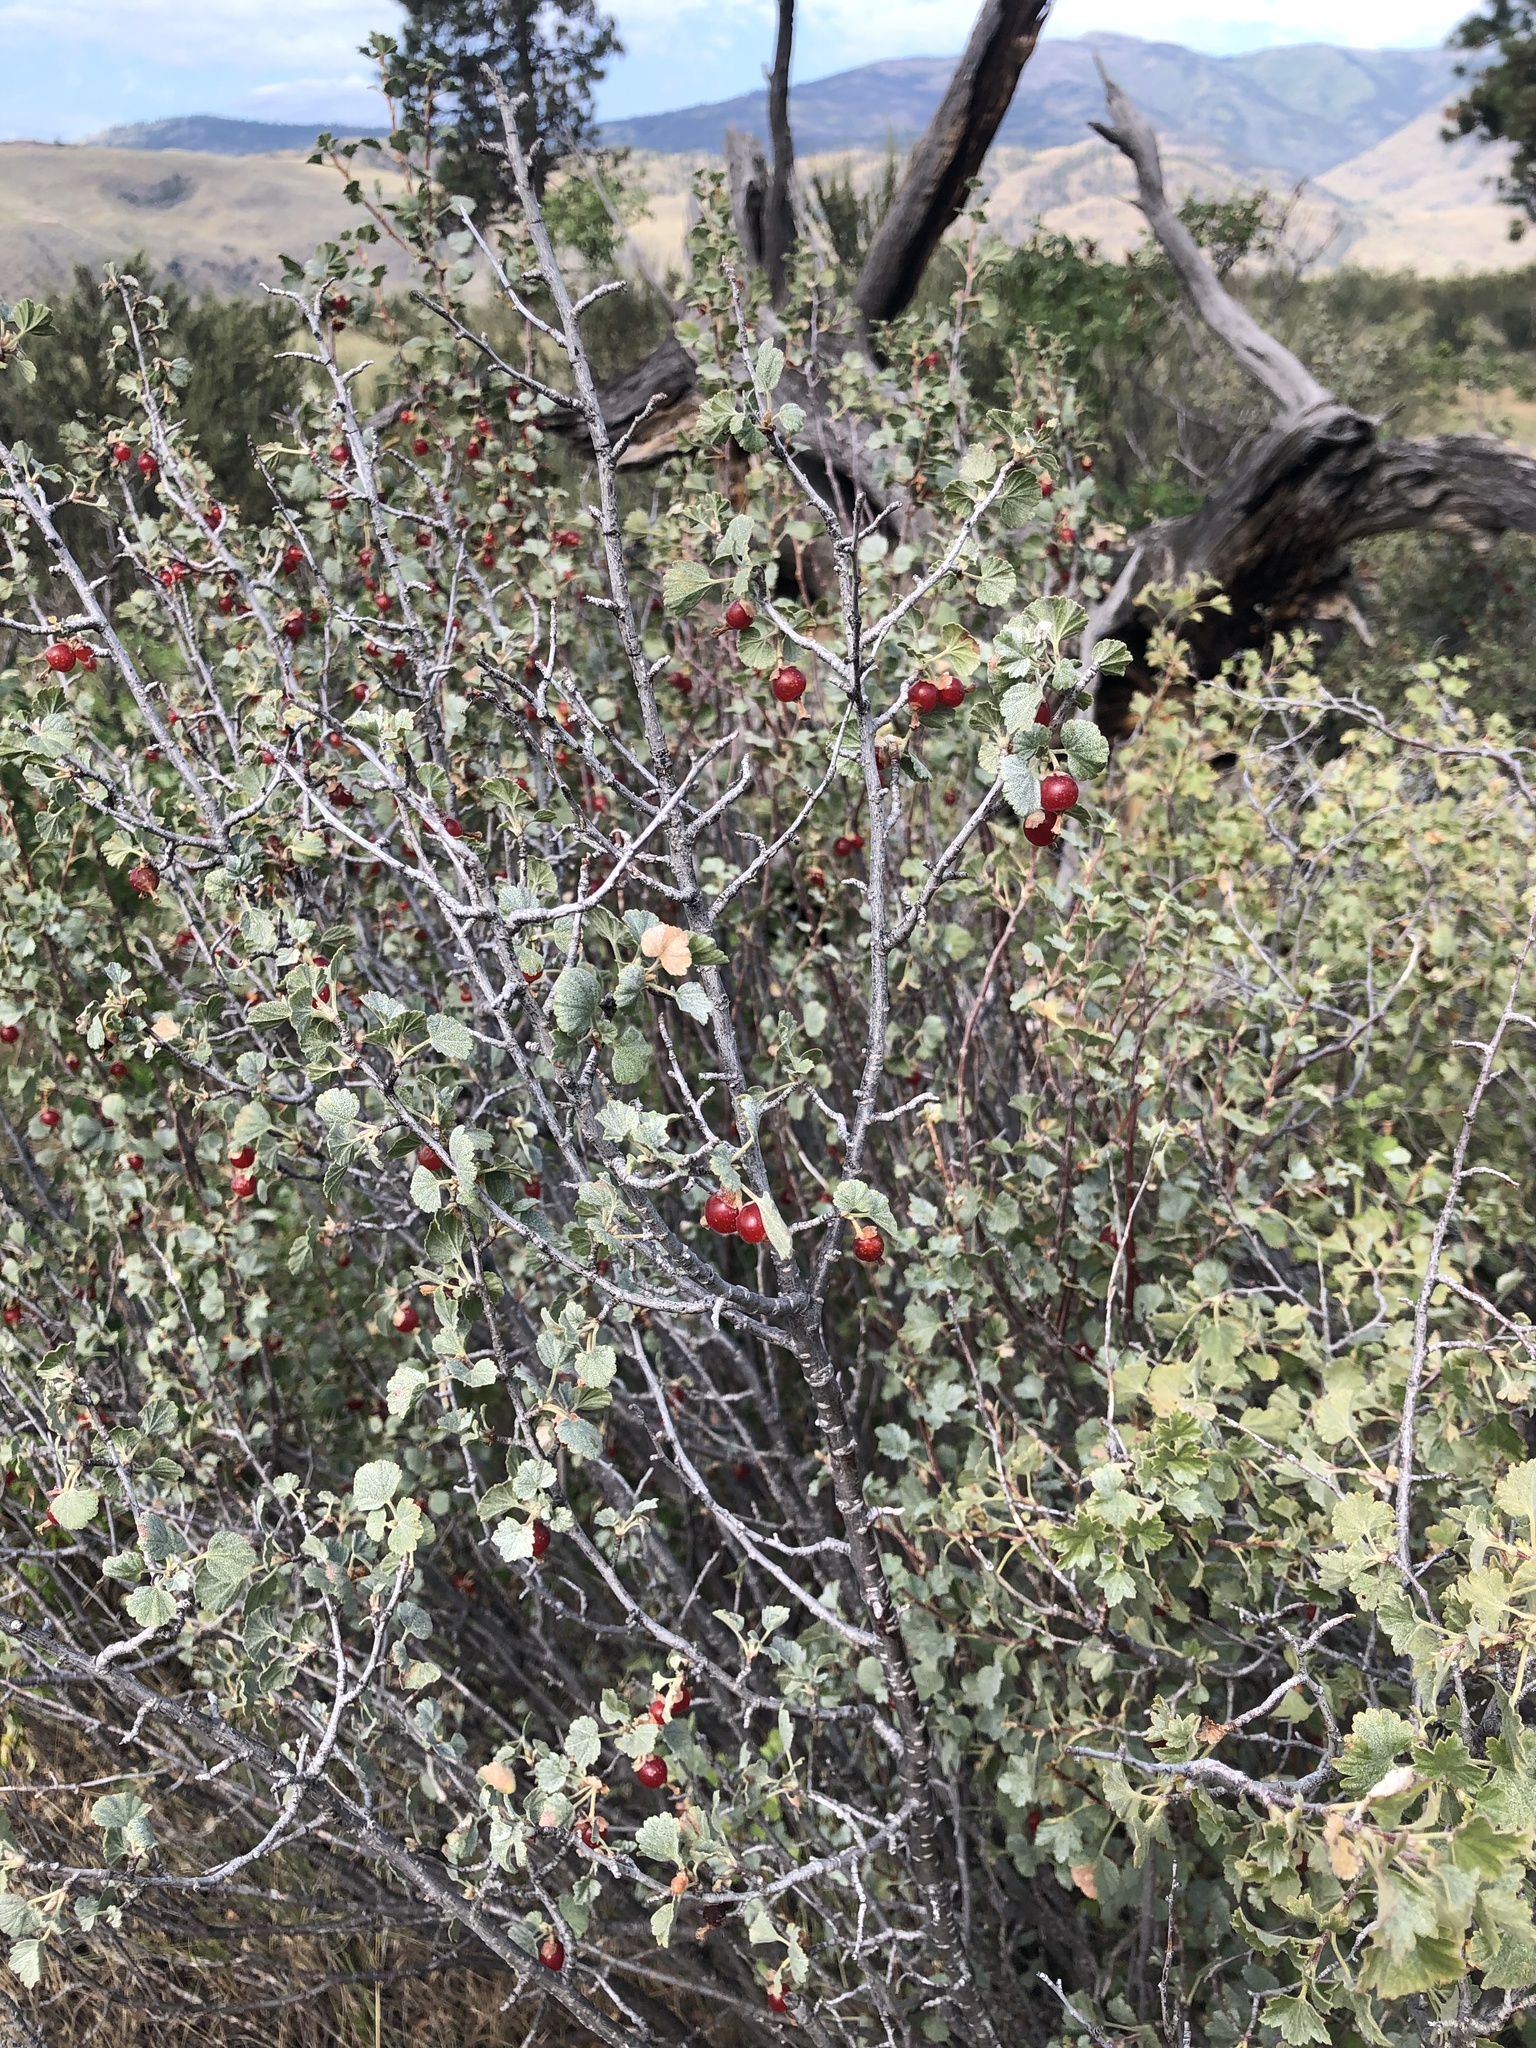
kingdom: Plantae
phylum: Tracheophyta
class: Magnoliopsida
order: Saxifragales
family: Grossulariaceae
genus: Ribes
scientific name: Ribes cereum
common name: Wax currant
